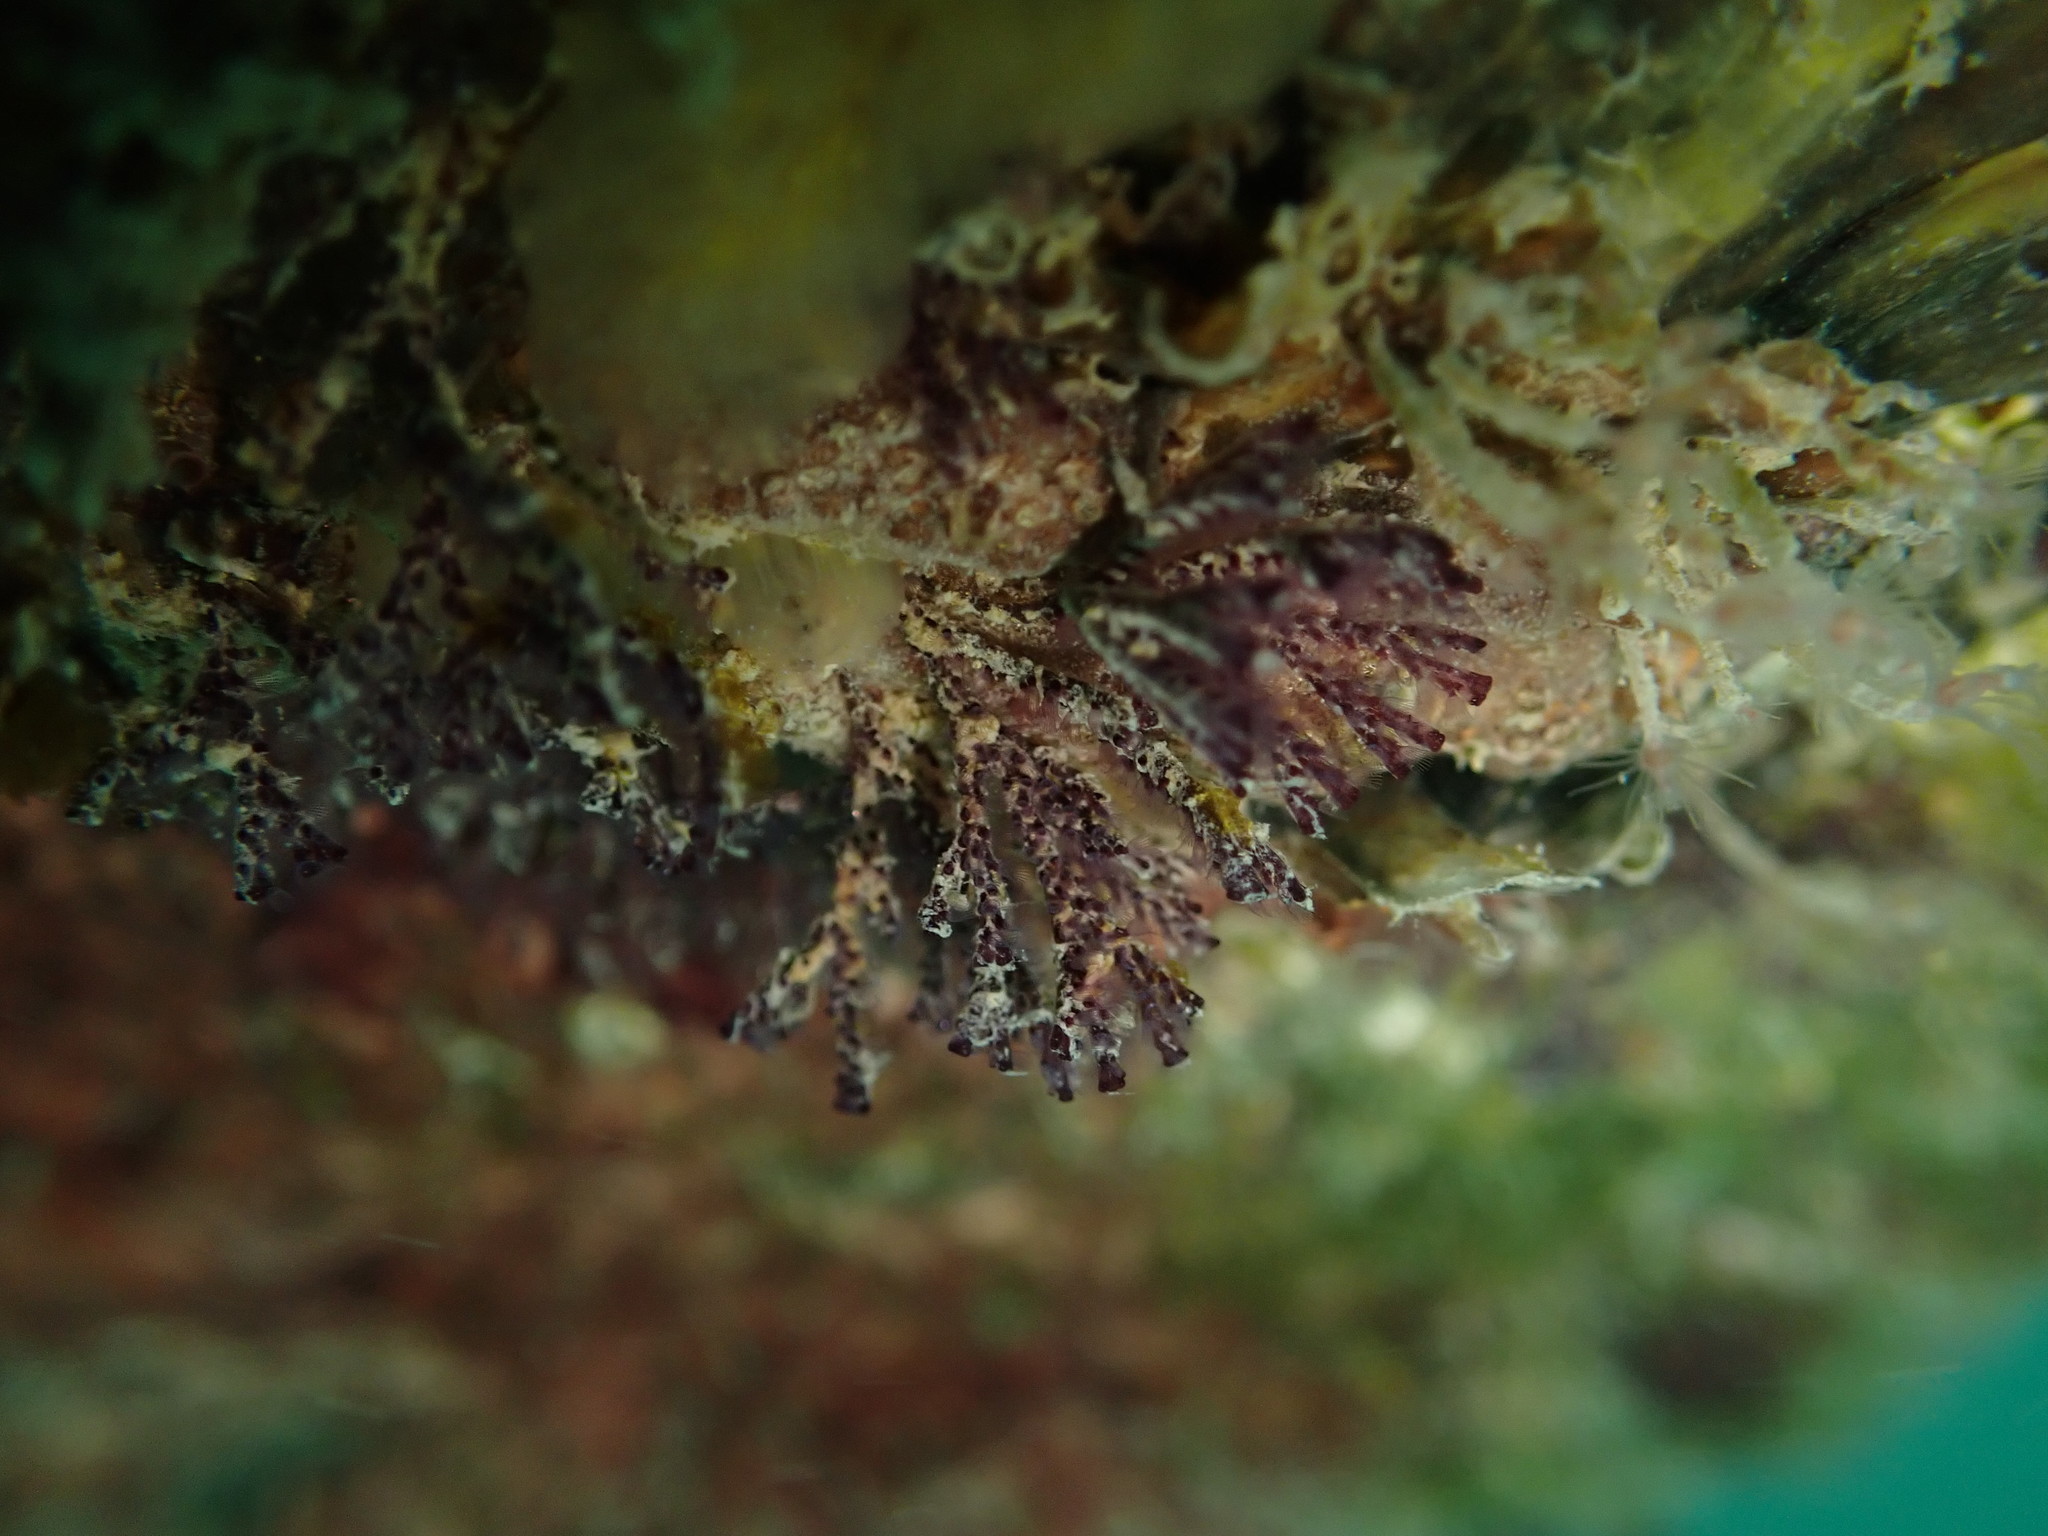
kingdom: Animalia
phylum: Bryozoa
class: Gymnolaemata
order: Cheilostomatida
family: Bugulidae
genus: Bugula
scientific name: Bugula neritina
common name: Brown bryozoan
